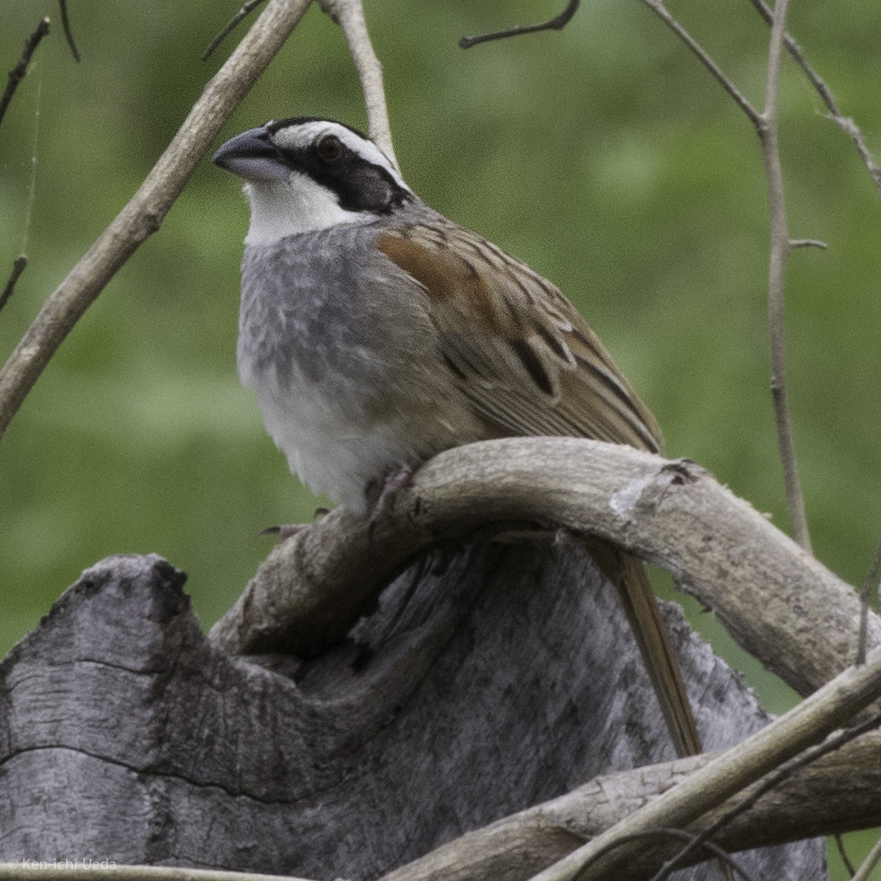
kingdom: Animalia
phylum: Chordata
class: Aves
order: Passeriformes
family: Passerellidae
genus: Peucaea
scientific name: Peucaea ruficauda
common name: Stripe-headed sparrow
